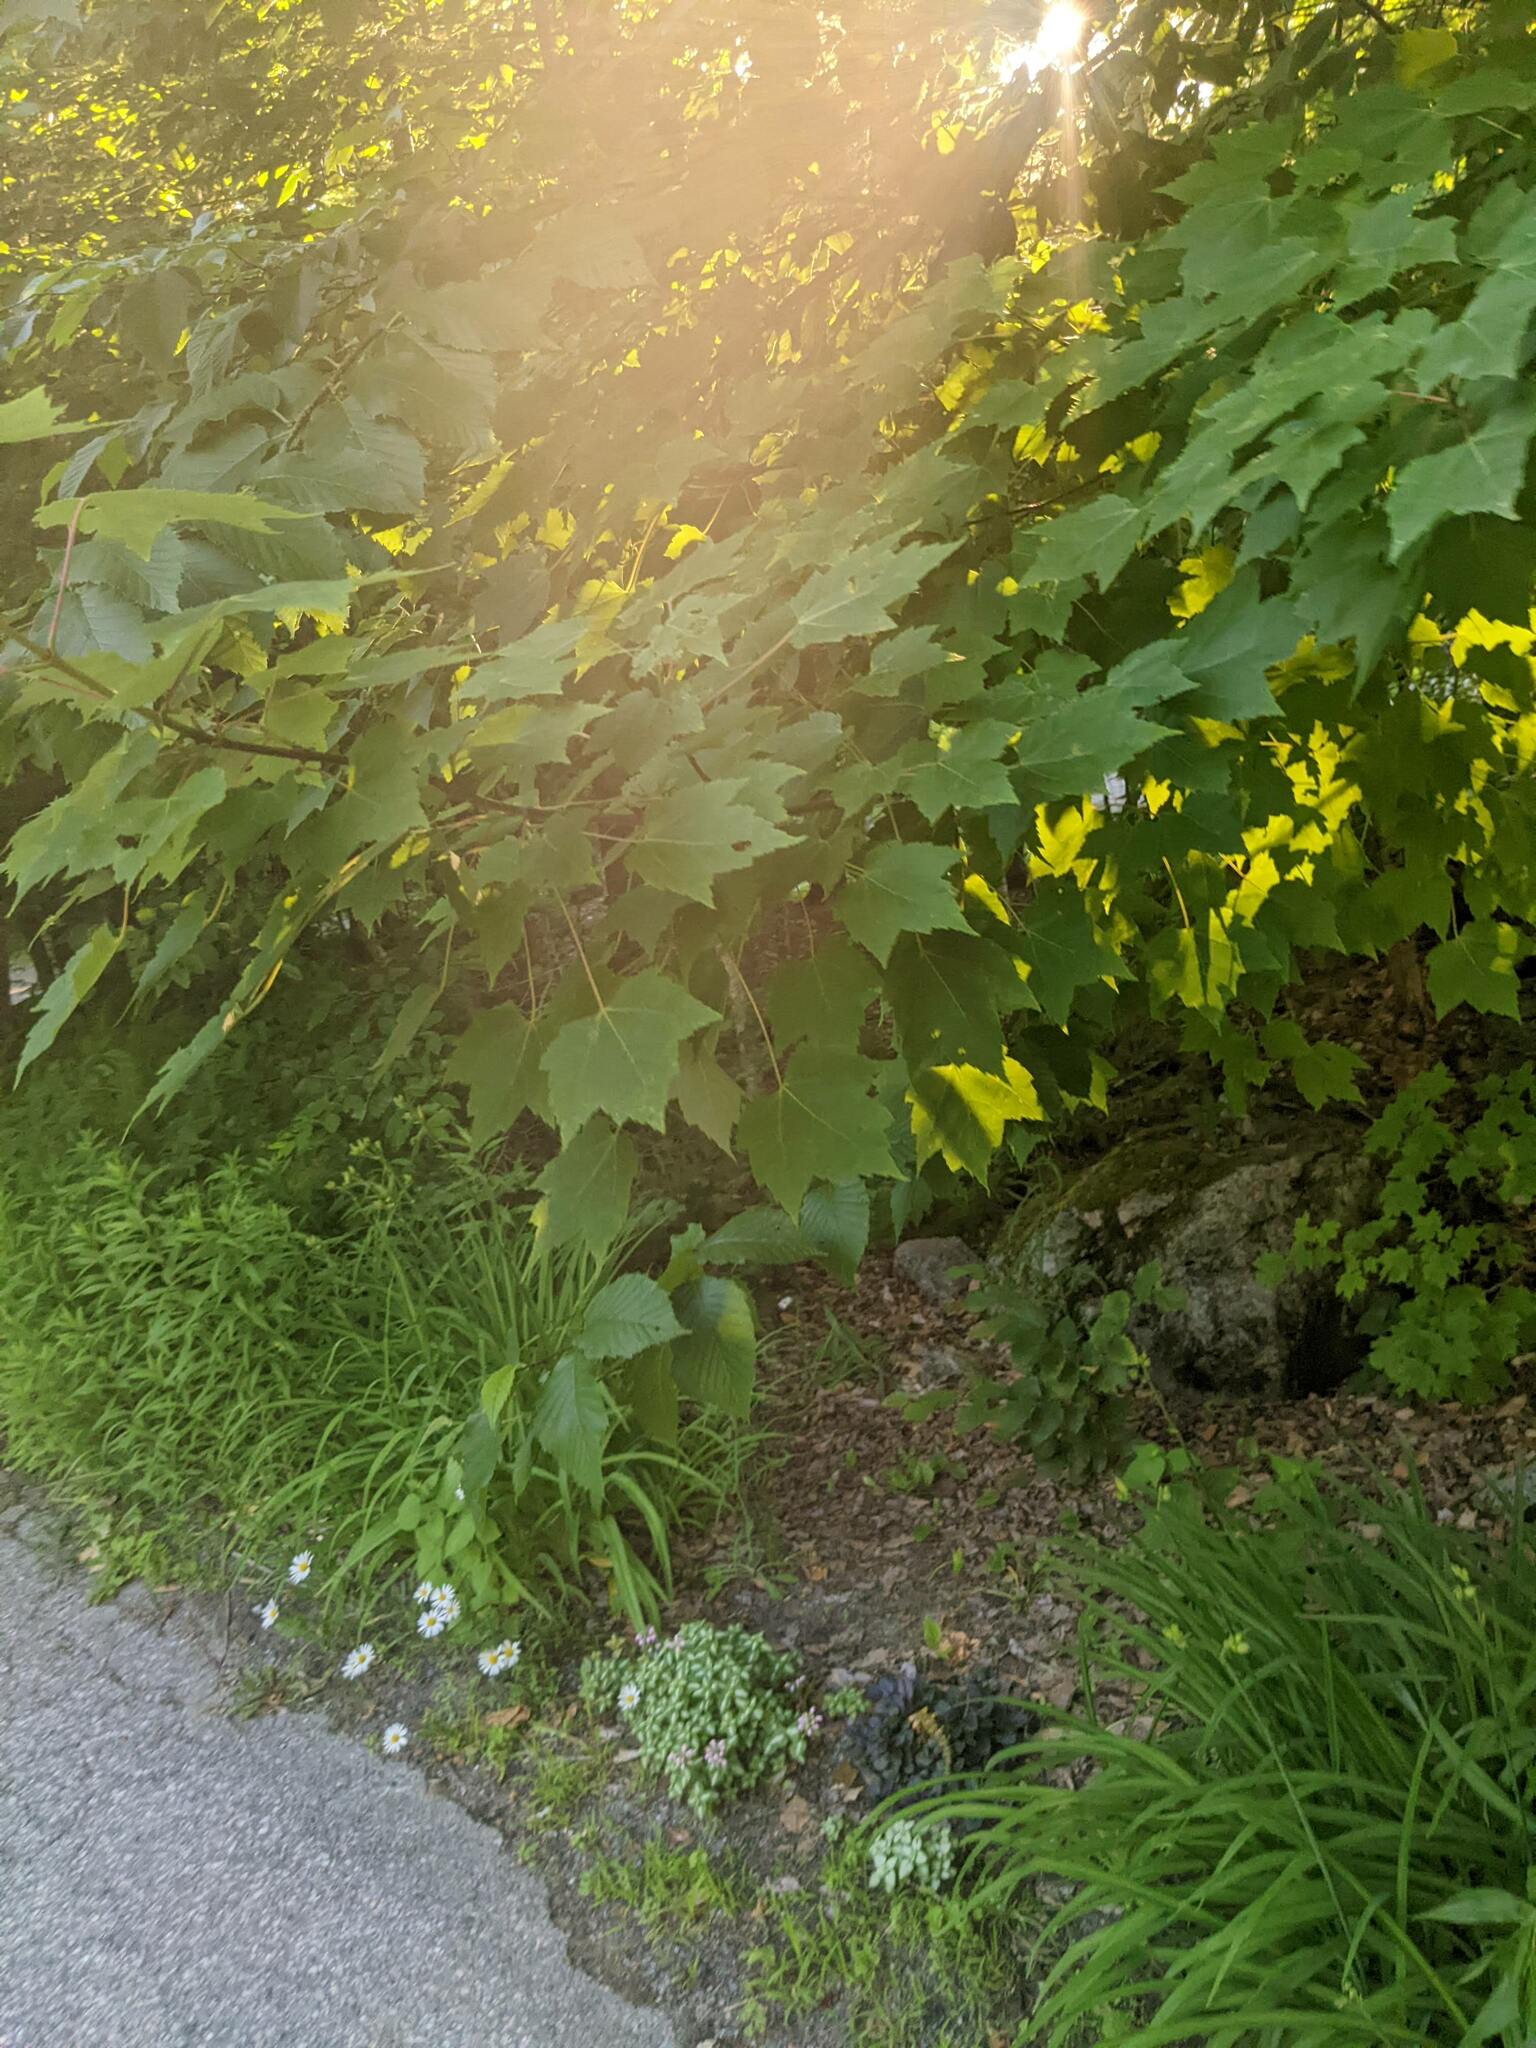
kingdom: Plantae
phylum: Tracheophyta
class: Magnoliopsida
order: Sapindales
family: Sapindaceae
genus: Acer
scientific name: Acer rubrum
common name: Red maple
